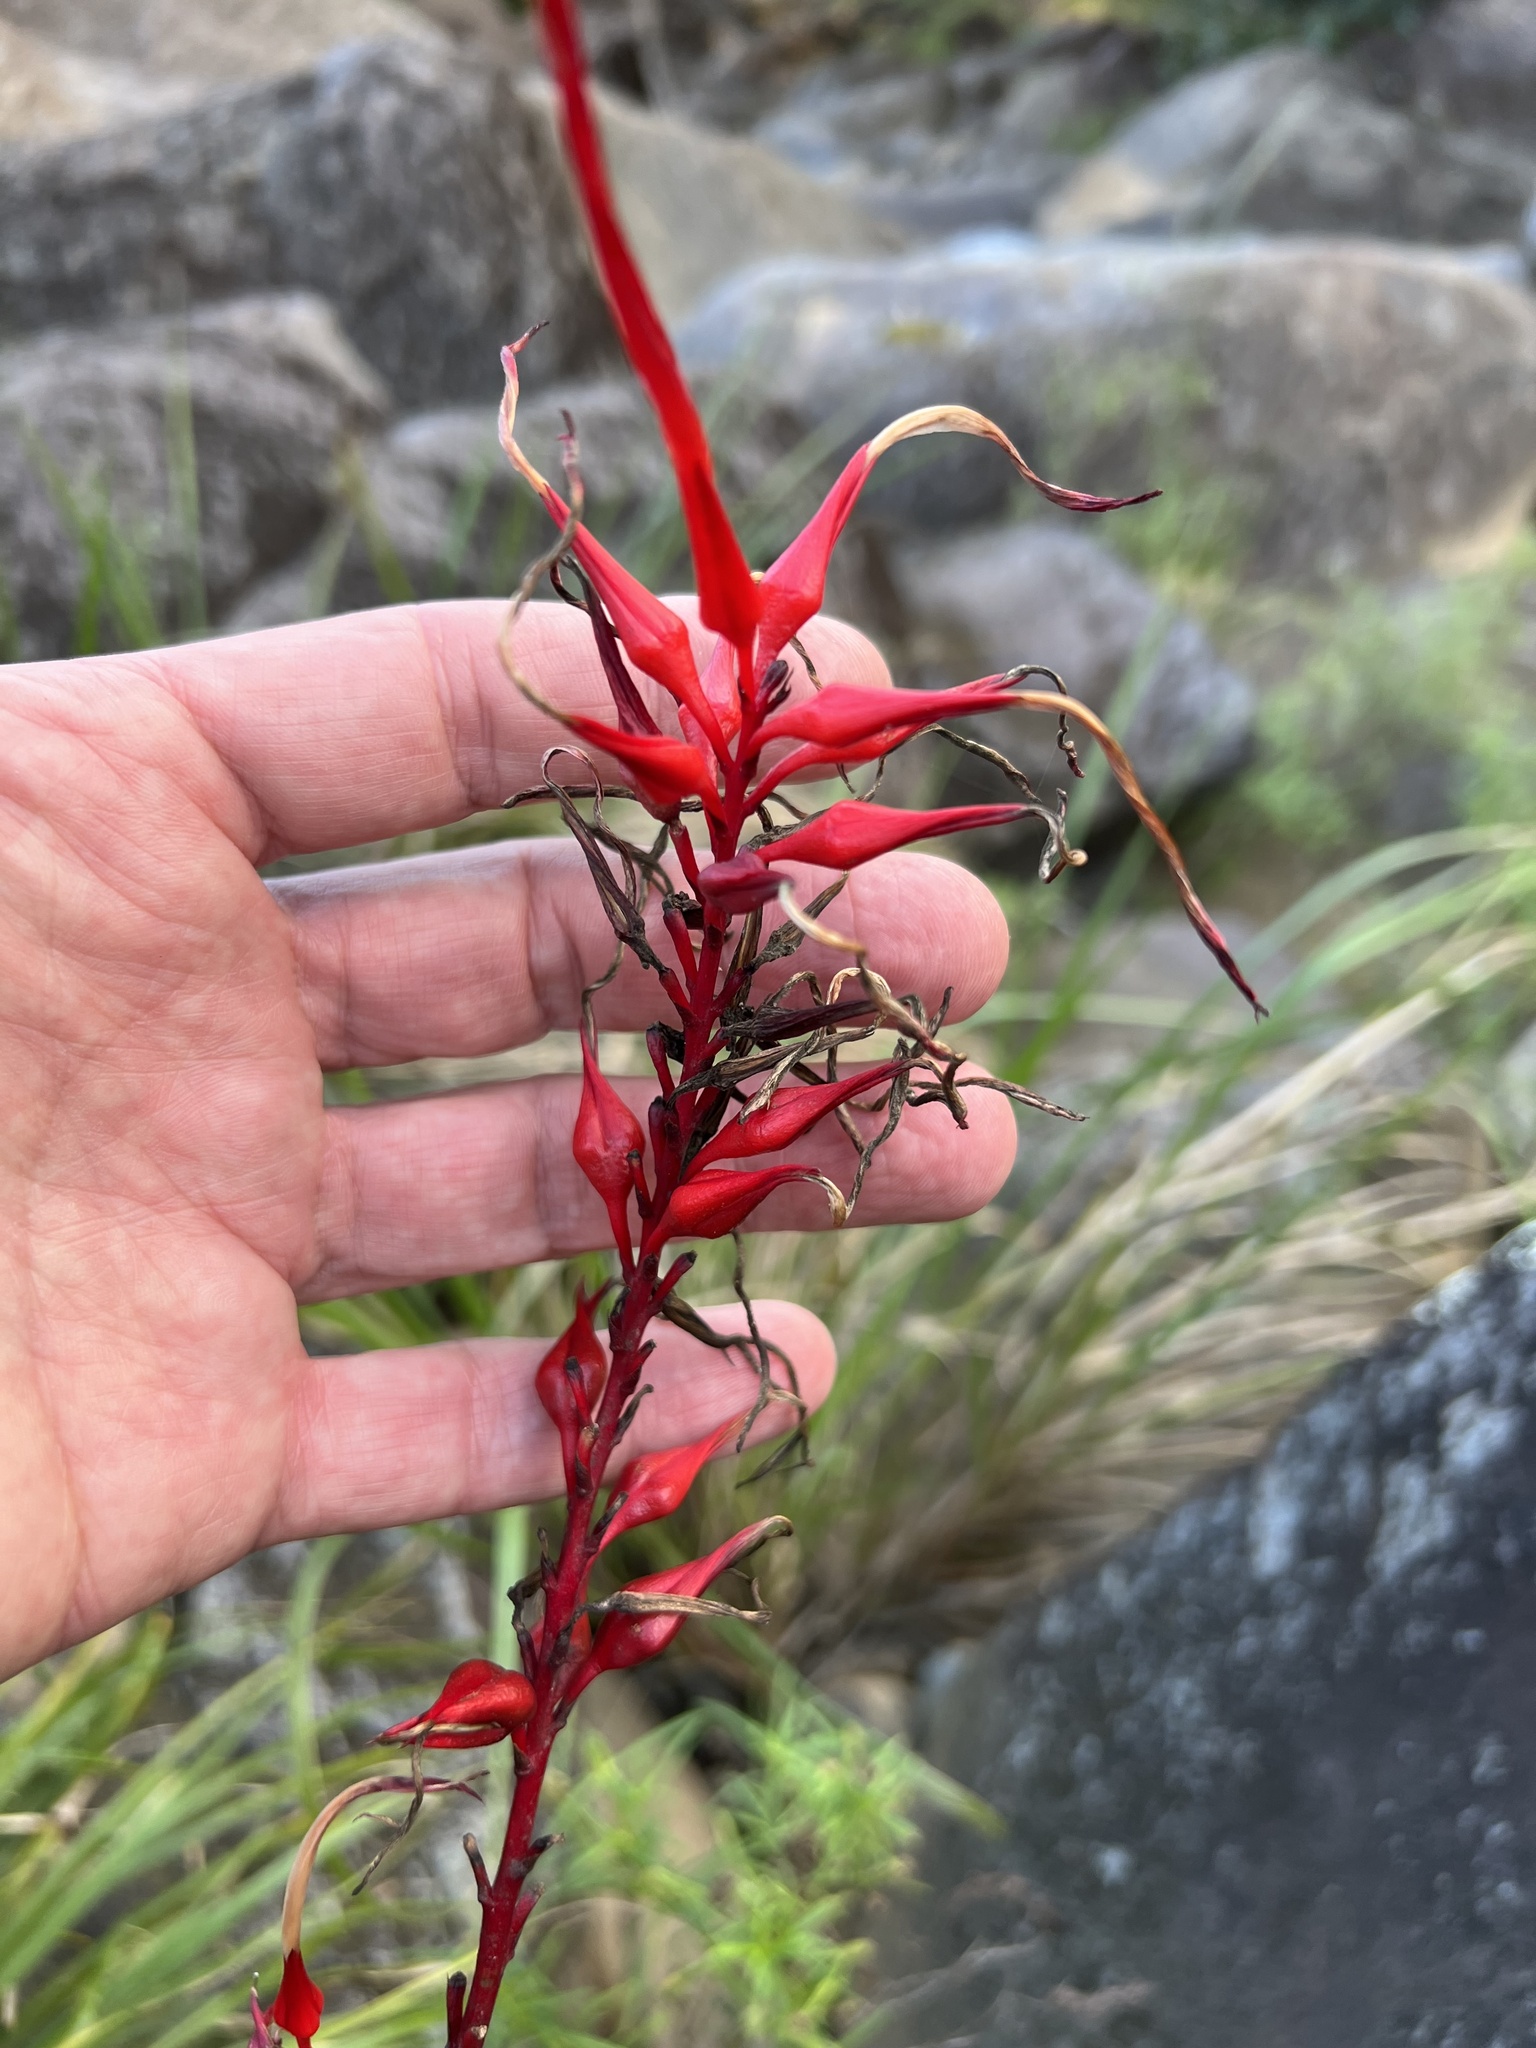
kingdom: Plantae
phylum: Tracheophyta
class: Liliopsida
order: Poales
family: Bromeliaceae
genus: Pitcairnia
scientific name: Pitcairnia angustifolia
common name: Clapper
